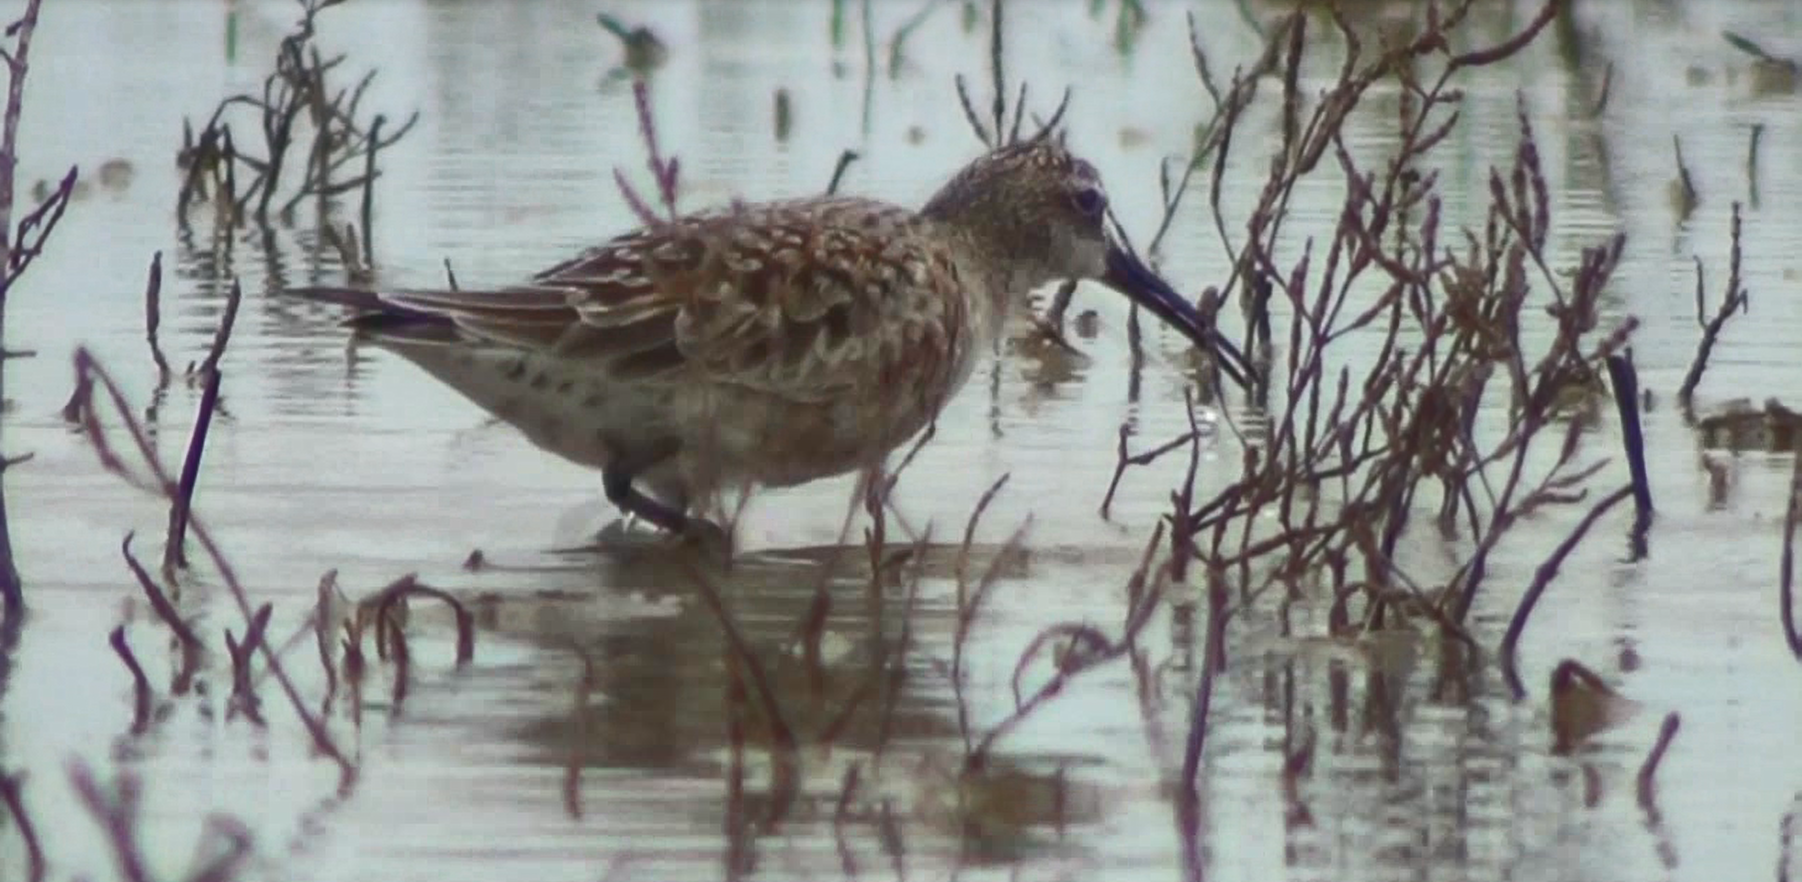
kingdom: Animalia
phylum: Chordata
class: Aves
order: Charadriiformes
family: Scolopacidae
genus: Calidris
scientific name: Calidris ferruginea
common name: Curlew sandpiper
